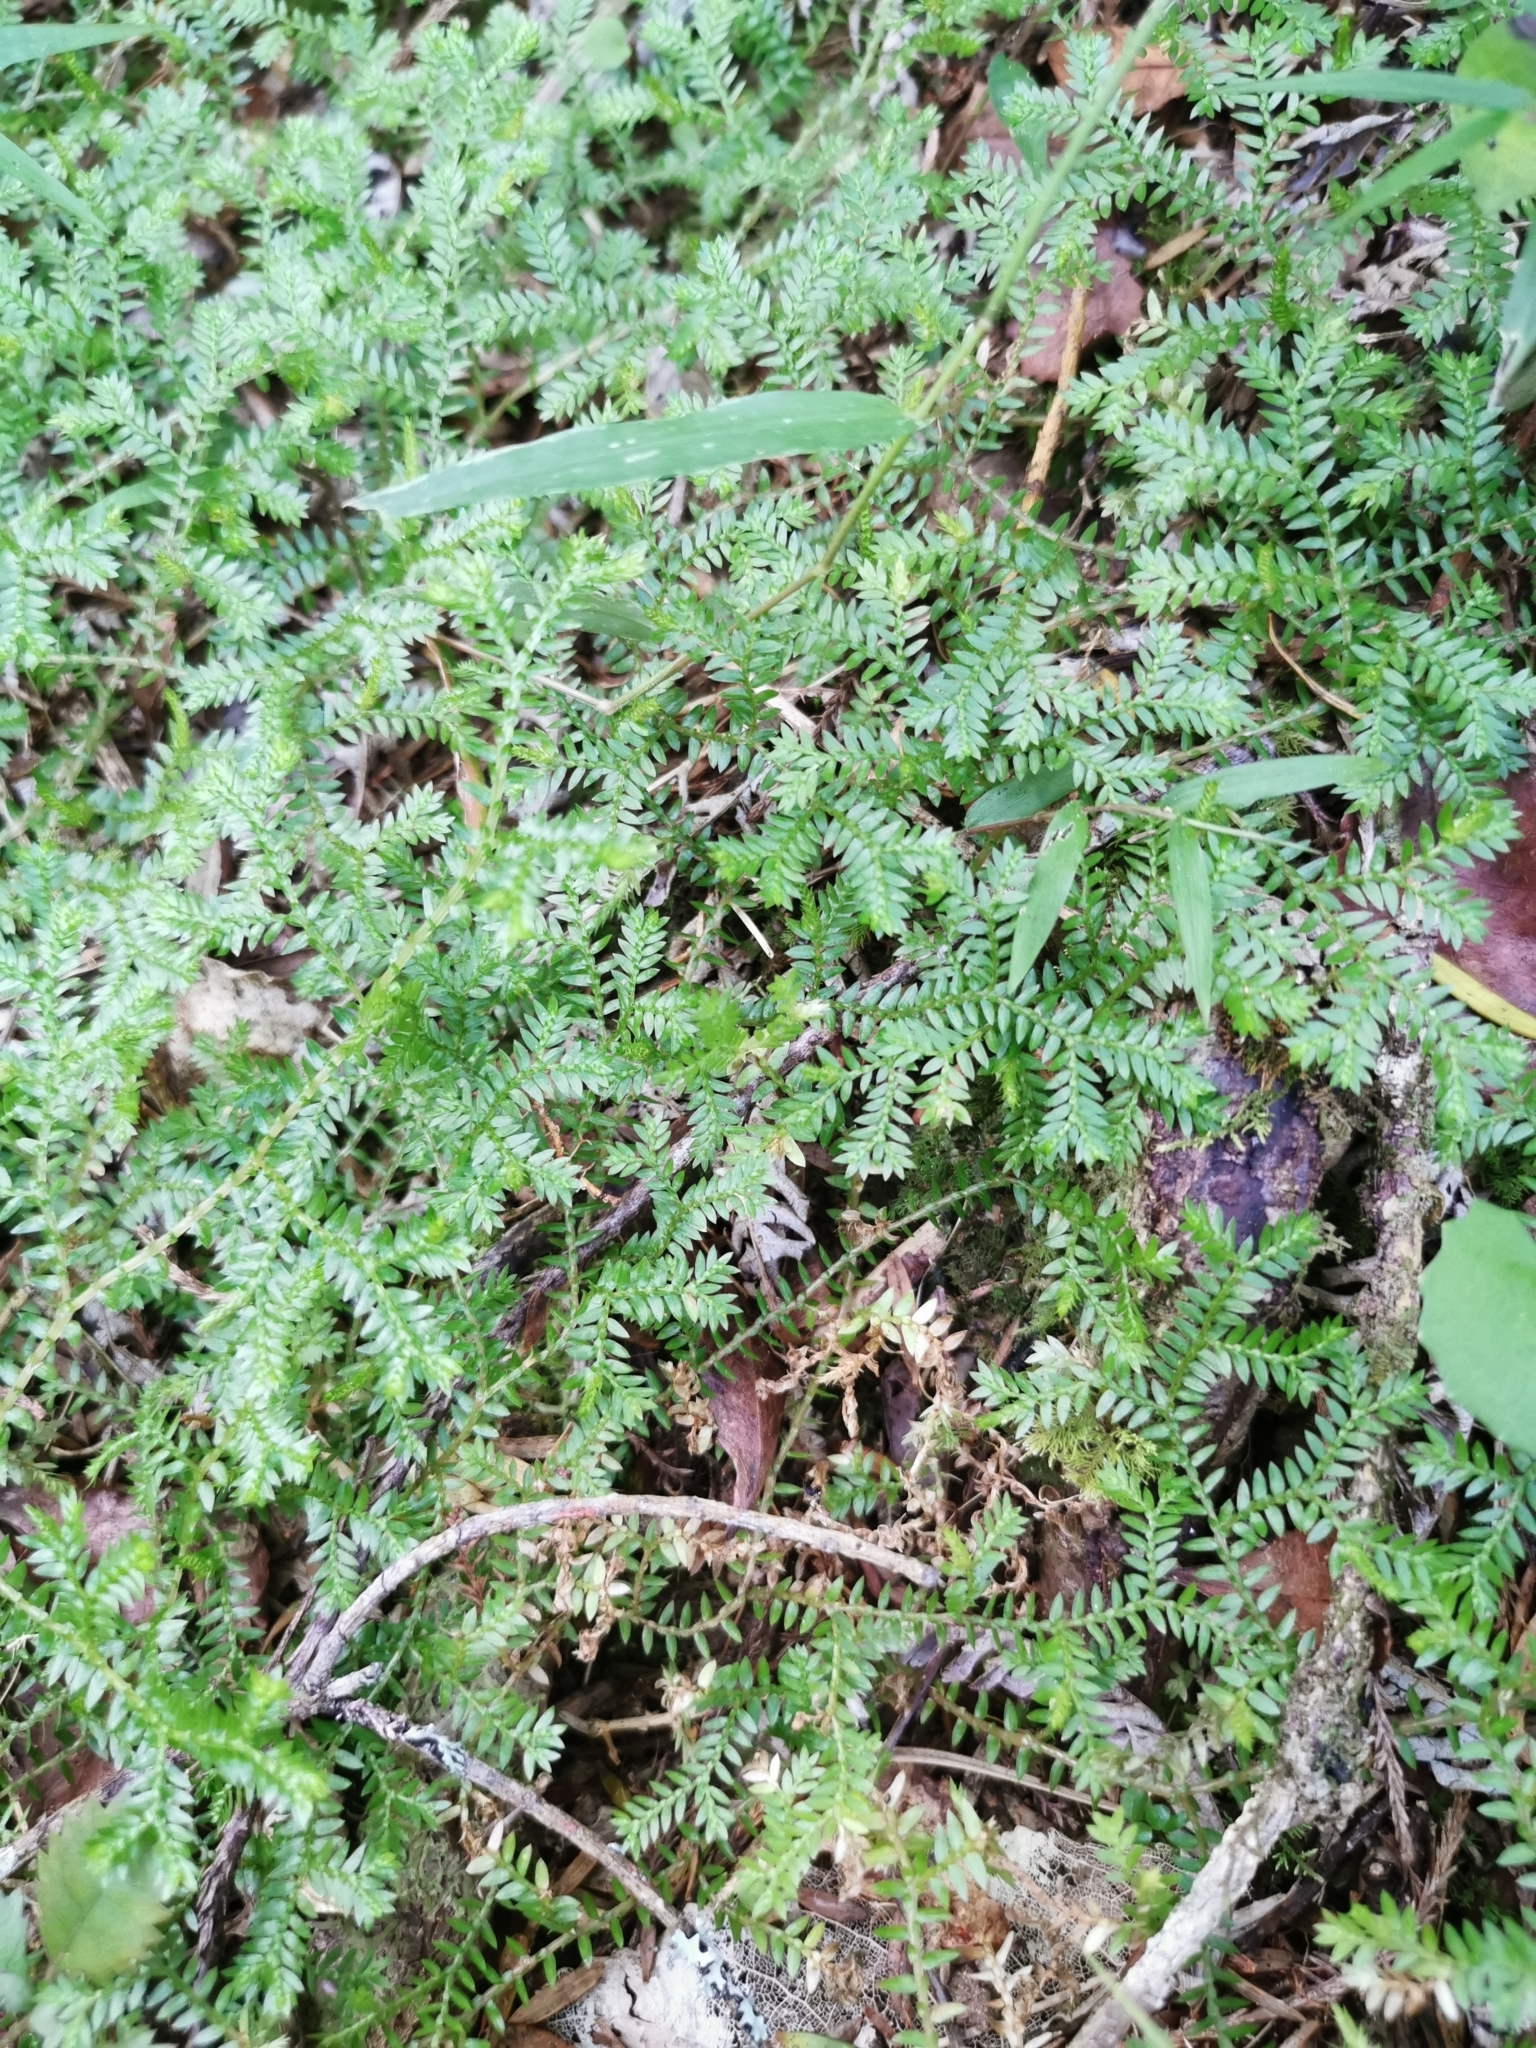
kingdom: Plantae
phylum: Tracheophyta
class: Lycopodiopsida
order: Selaginellales
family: Selaginellaceae
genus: Selaginella
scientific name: Selaginella kraussiana
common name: Krauss' spikemoss
